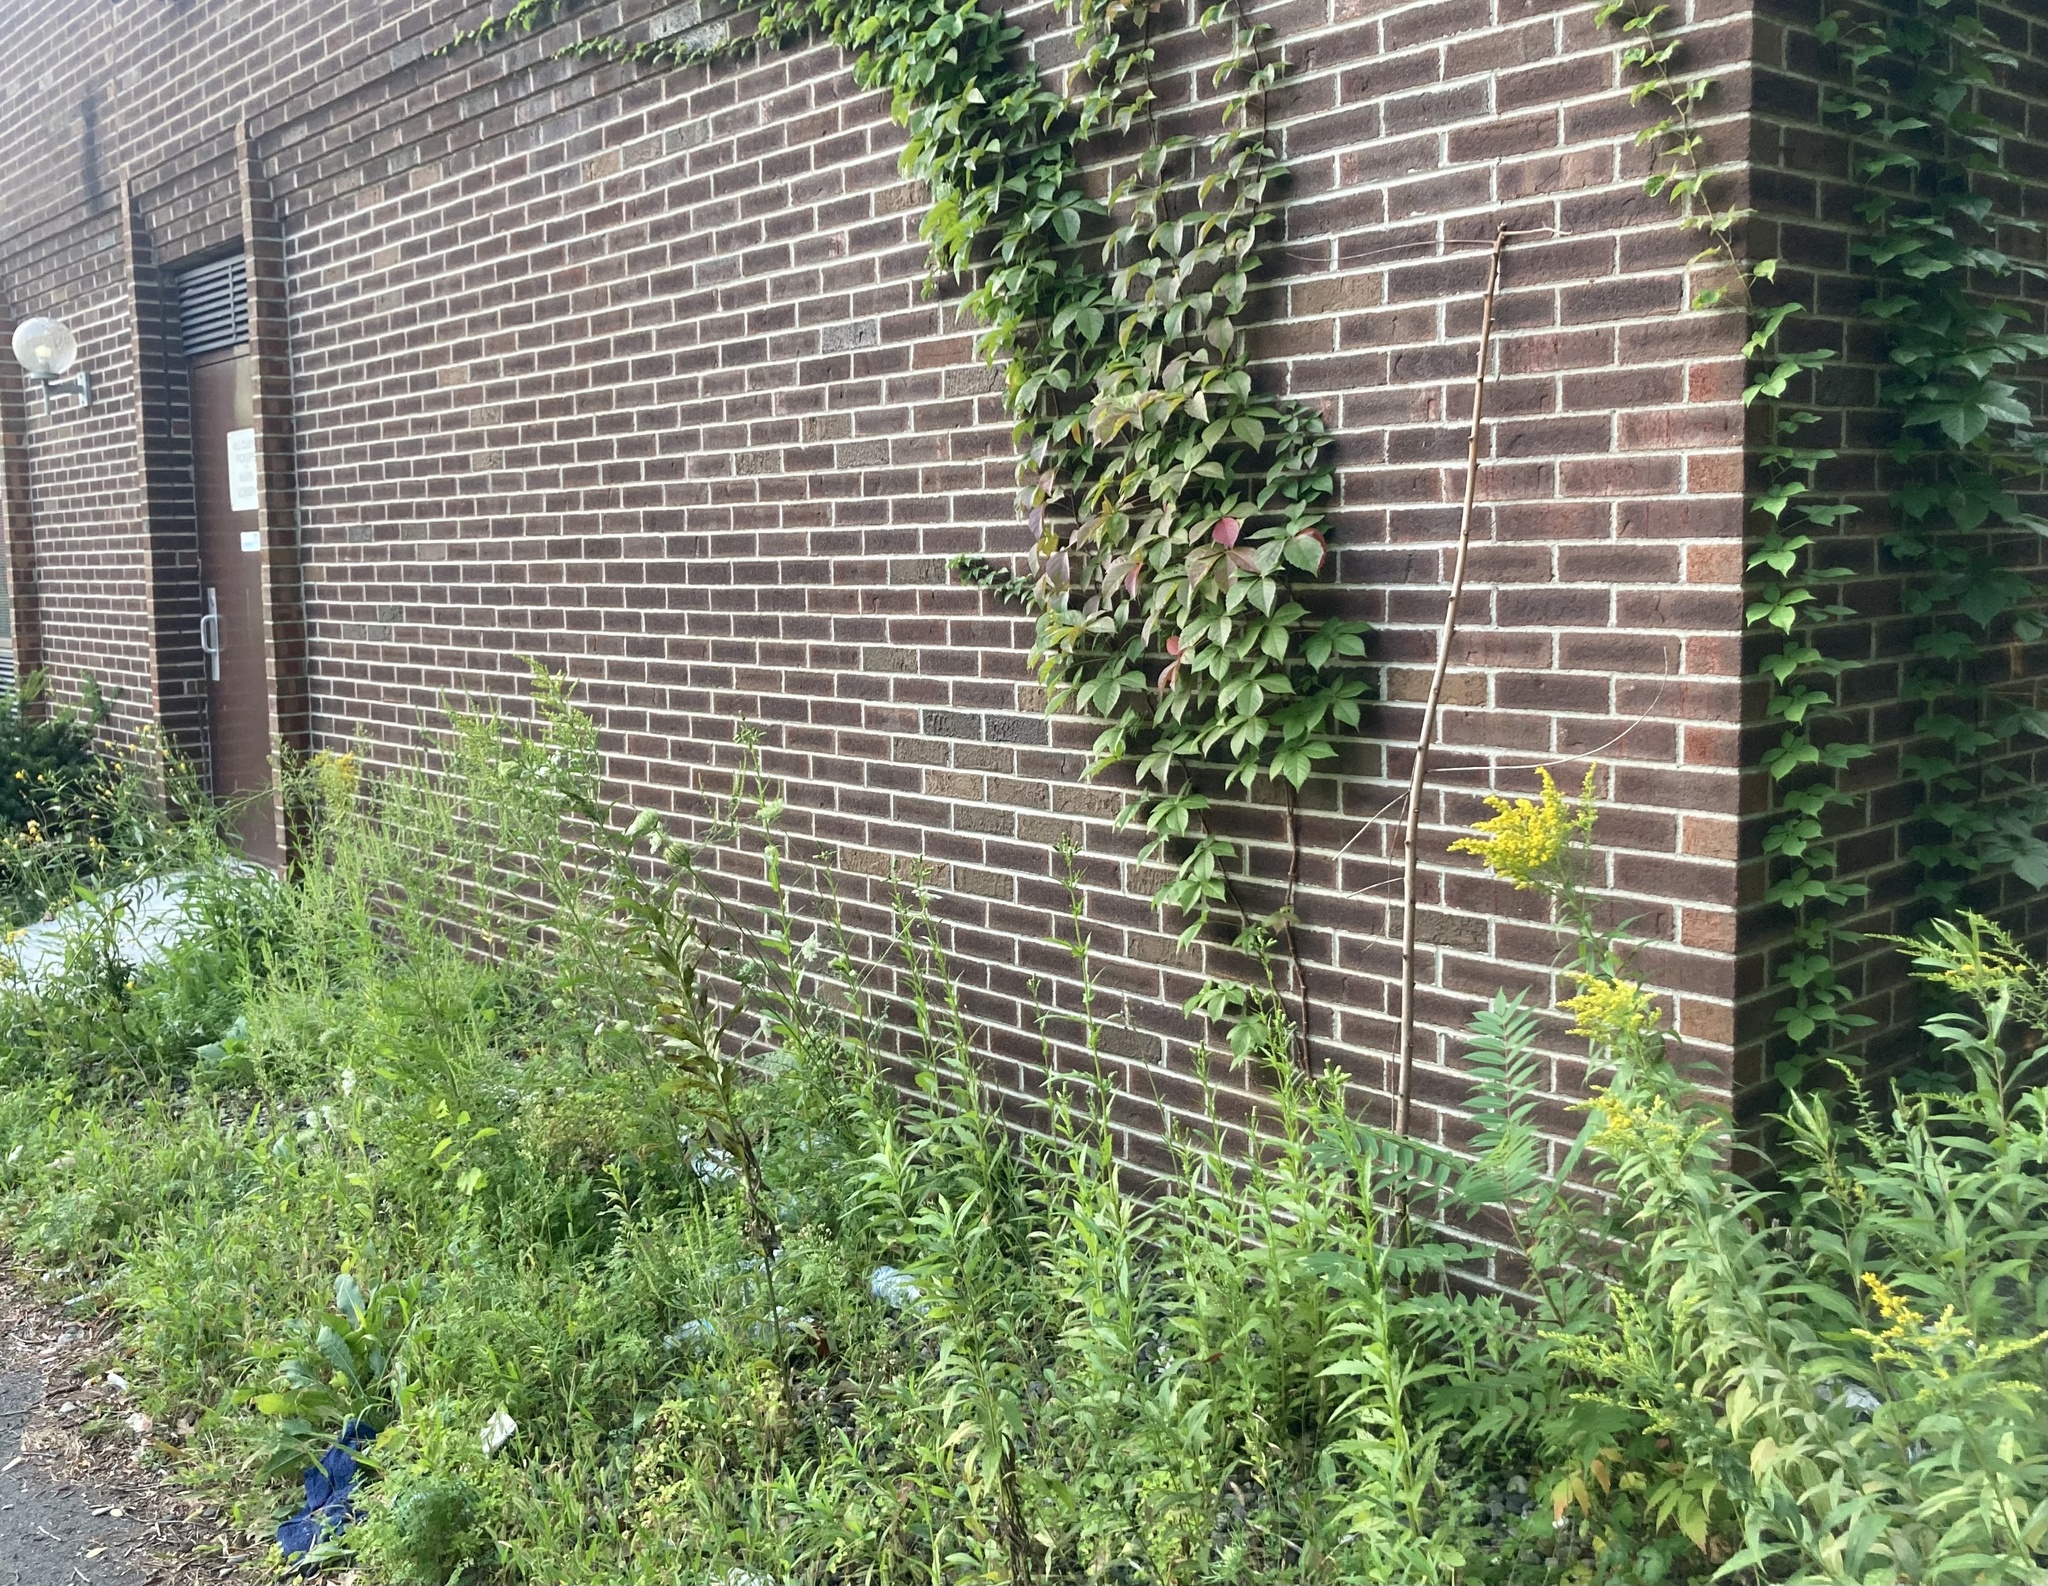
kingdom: Plantae
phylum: Tracheophyta
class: Magnoliopsida
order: Vitales
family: Vitaceae
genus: Parthenocissus
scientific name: Parthenocissus quinquefolia
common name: Virginia-creeper
